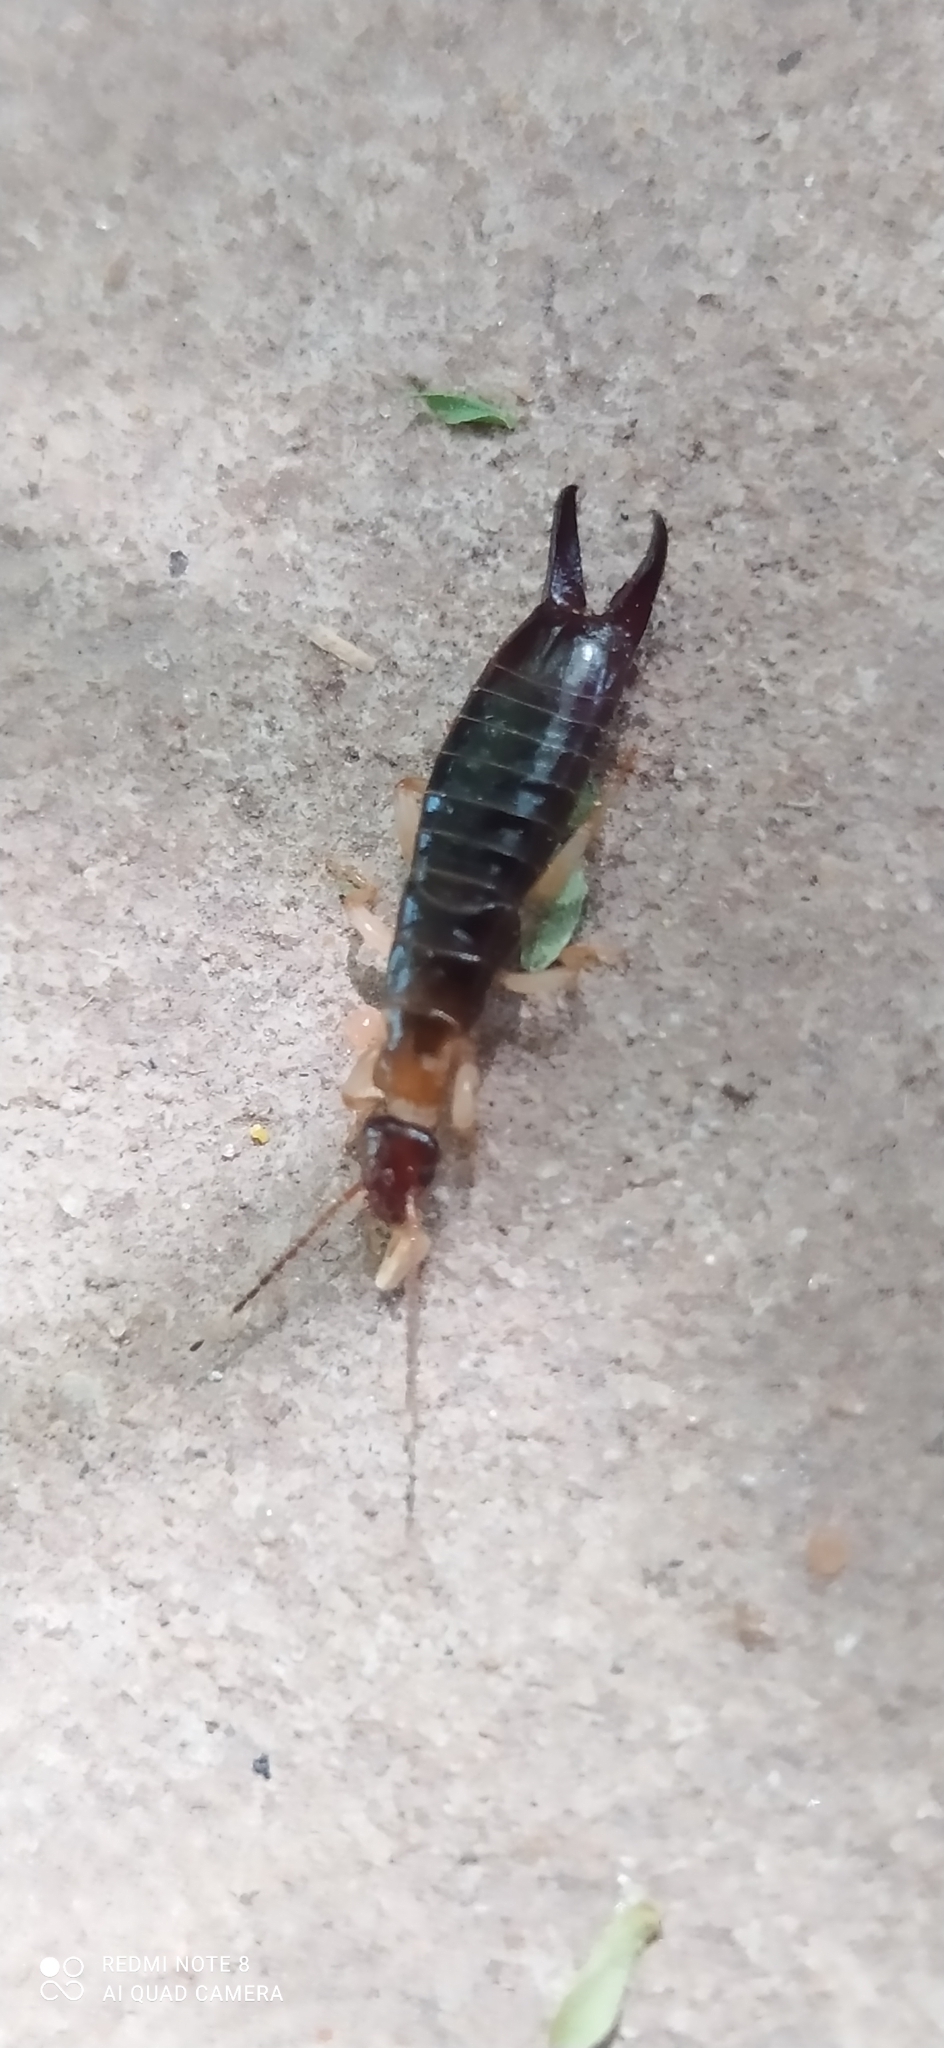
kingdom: Animalia
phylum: Arthropoda
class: Insecta
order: Dermaptera
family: Anisolabididae
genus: Euborellia
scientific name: Euborellia annulipes
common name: Ringlegged earwig
